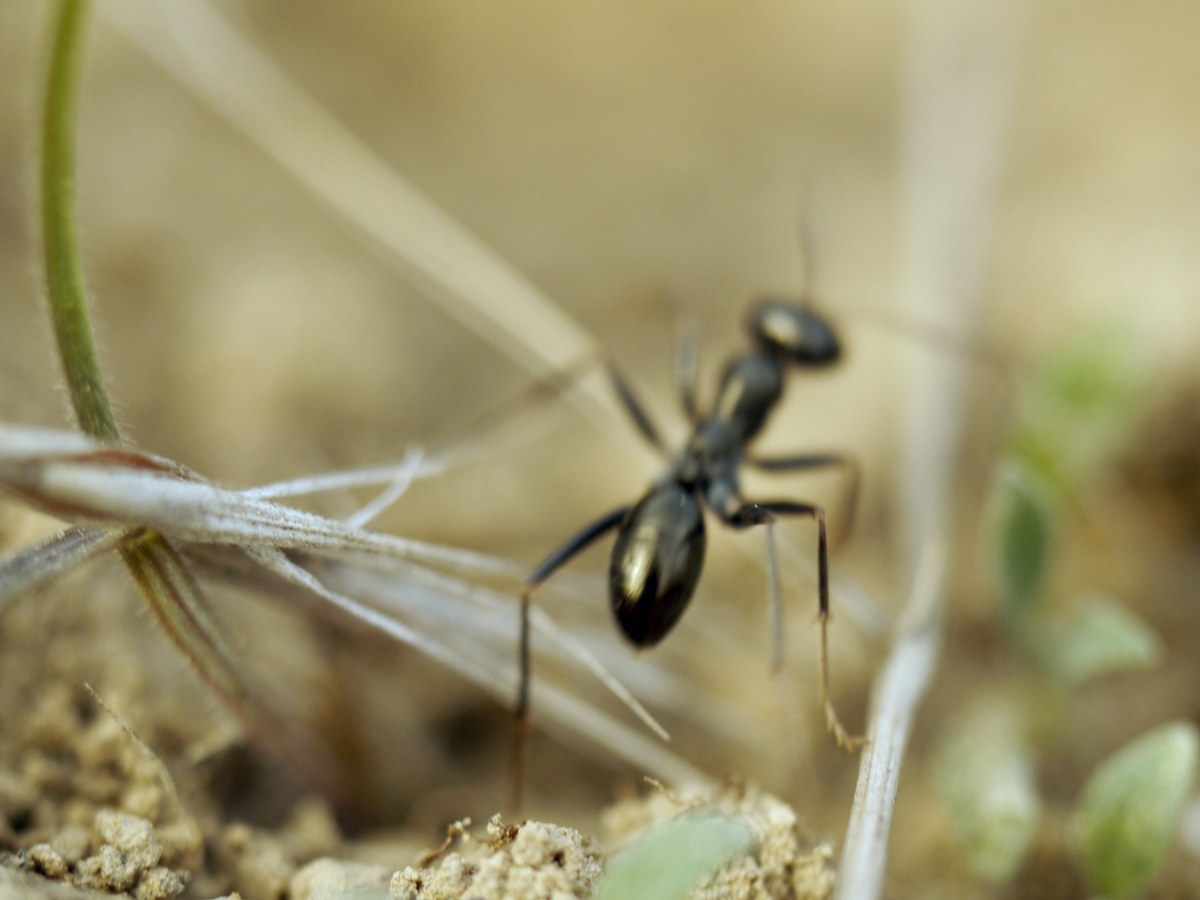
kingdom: Animalia
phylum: Arthropoda
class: Insecta
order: Hymenoptera
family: Formicidae
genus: Cataglyphis
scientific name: Cataglyphis aenescens
